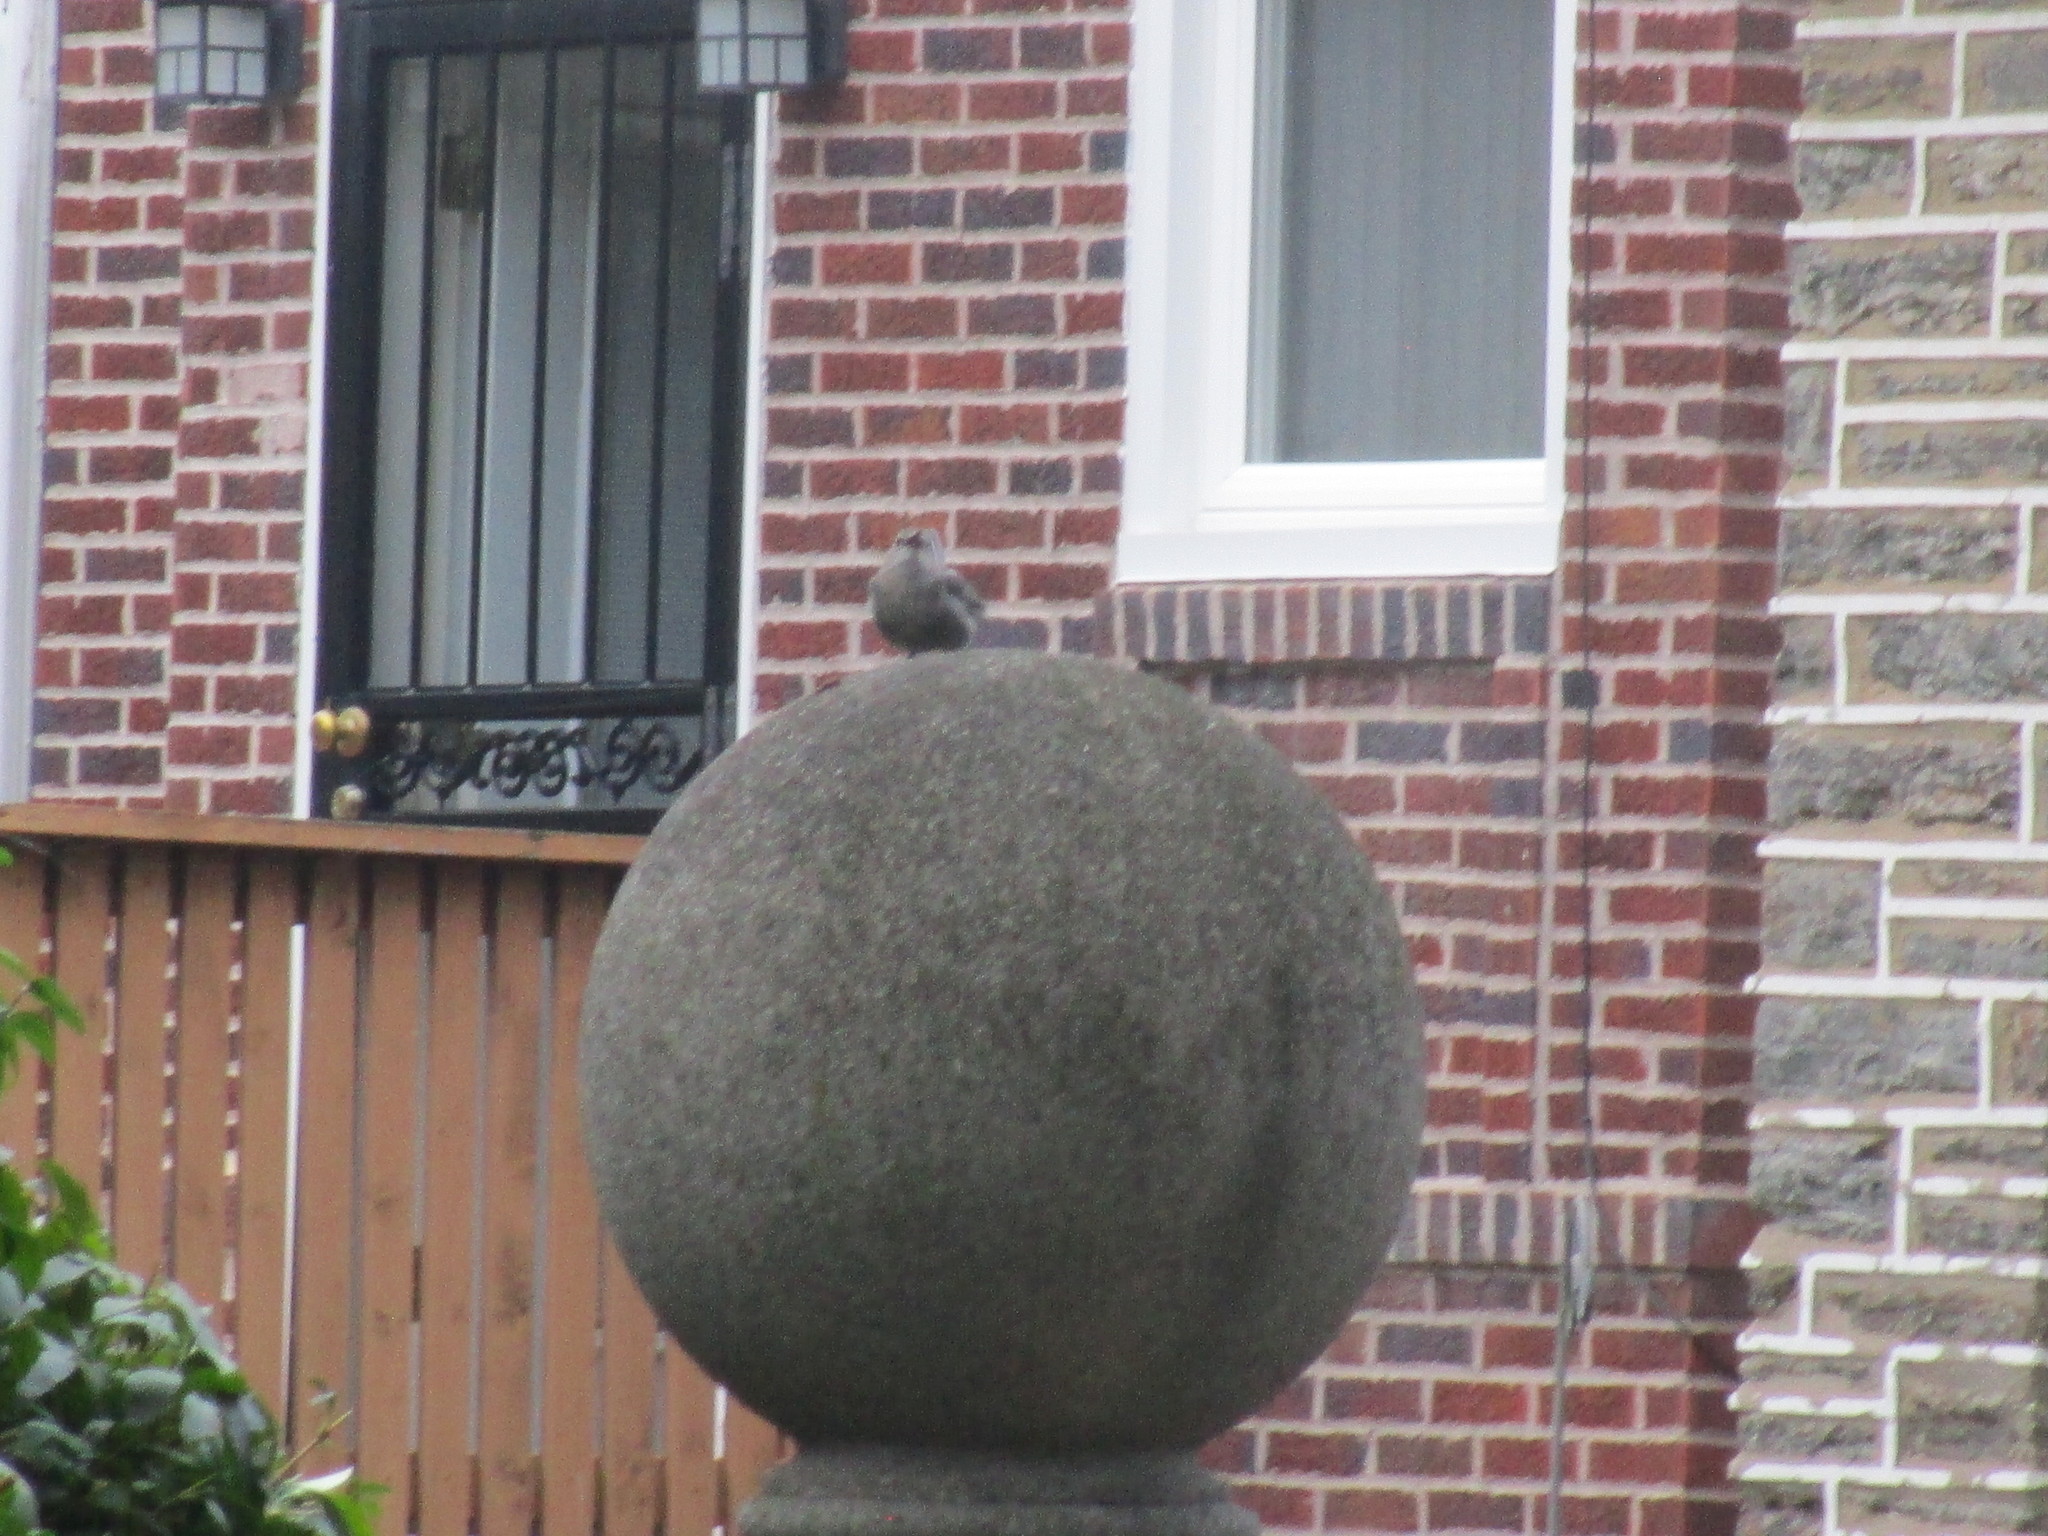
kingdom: Animalia
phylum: Chordata
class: Aves
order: Passeriformes
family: Mimidae
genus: Dumetella
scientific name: Dumetella carolinensis
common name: Gray catbird
